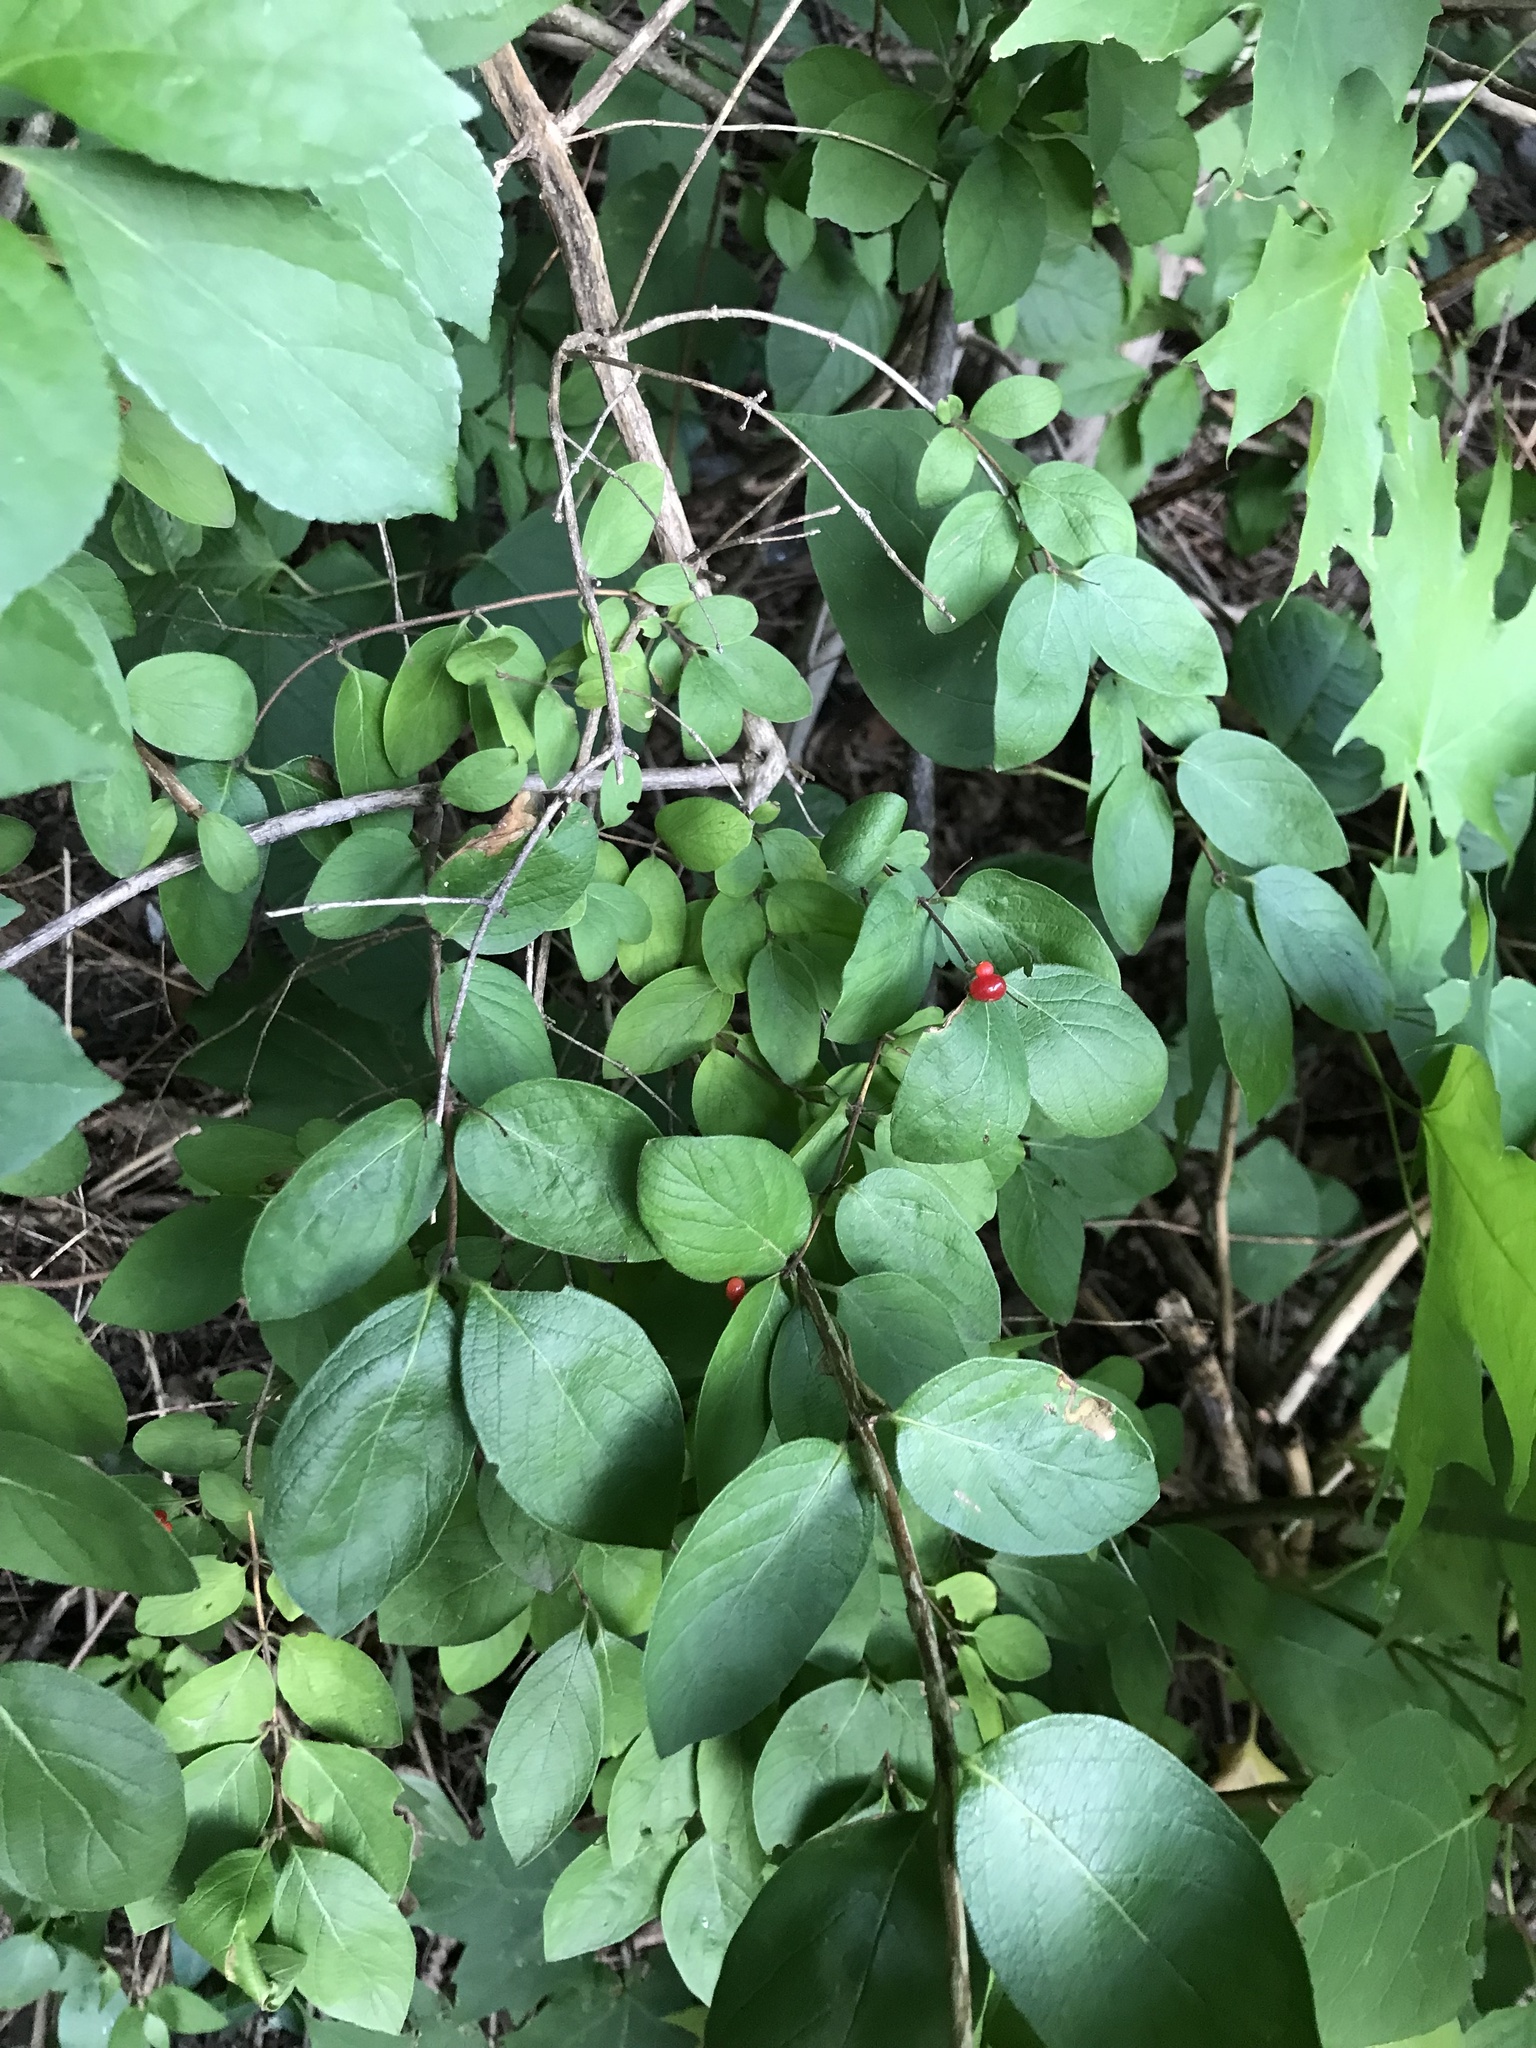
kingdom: Animalia
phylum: Arthropoda
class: Insecta
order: Diptera
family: Agromyzidae
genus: Aulagromyza
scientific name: Aulagromyza
